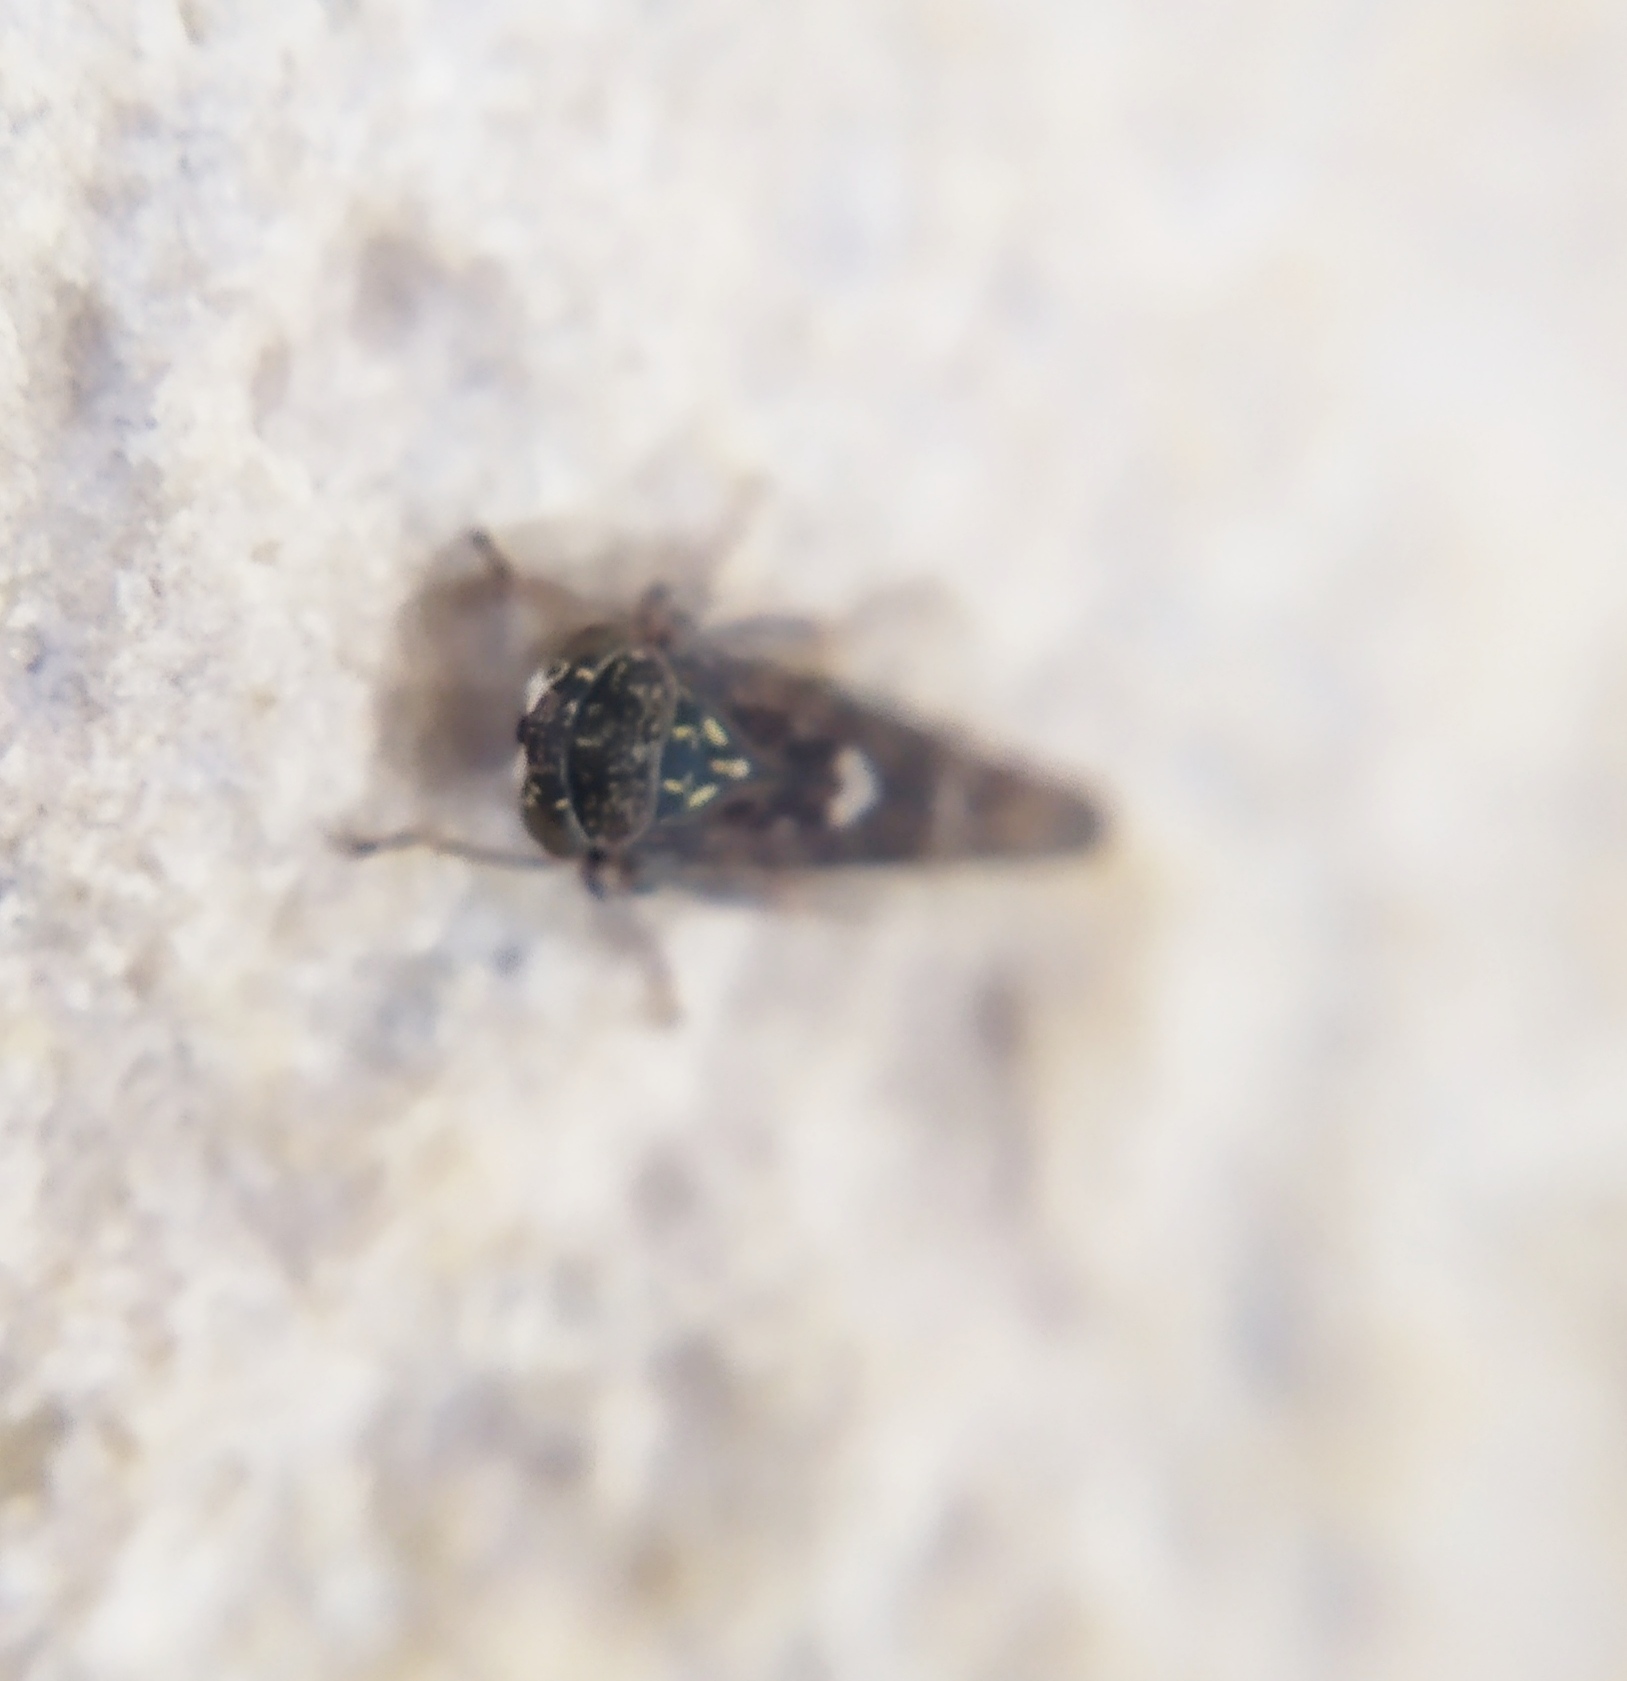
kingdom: Animalia
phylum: Arthropoda
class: Insecta
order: Hemiptera
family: Cicadellidae
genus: Acericerus
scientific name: Acericerus heydenii
